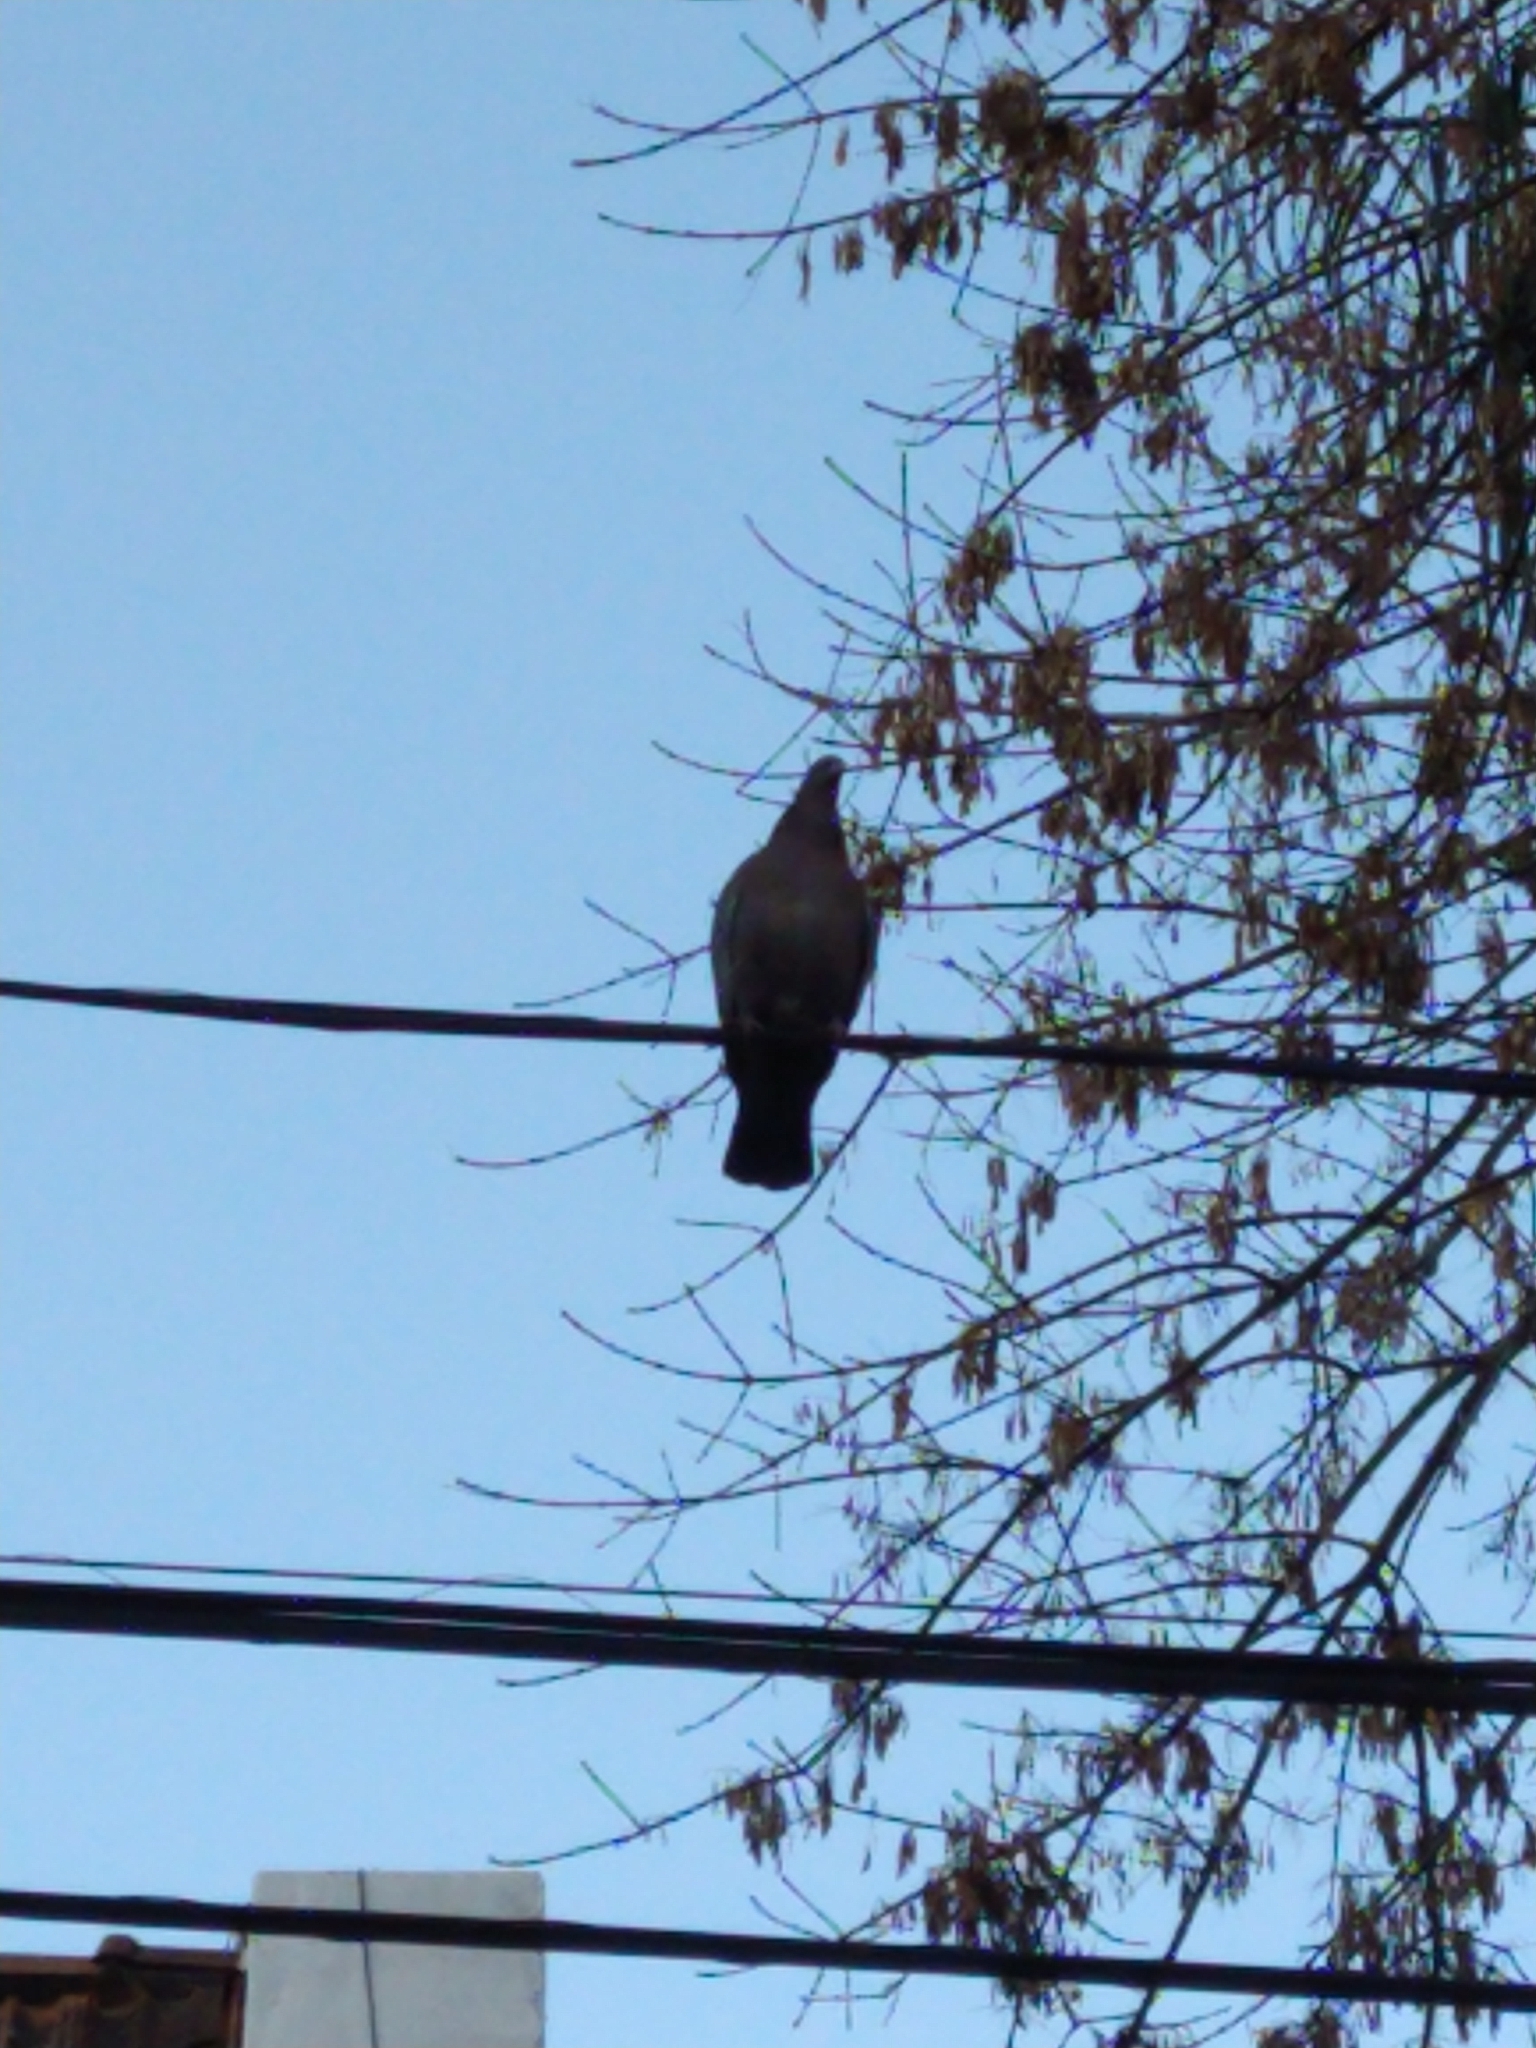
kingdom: Animalia
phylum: Chordata
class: Aves
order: Columbiformes
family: Columbidae
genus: Patagioenas
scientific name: Patagioenas picazuro
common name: Picazuro pigeon
